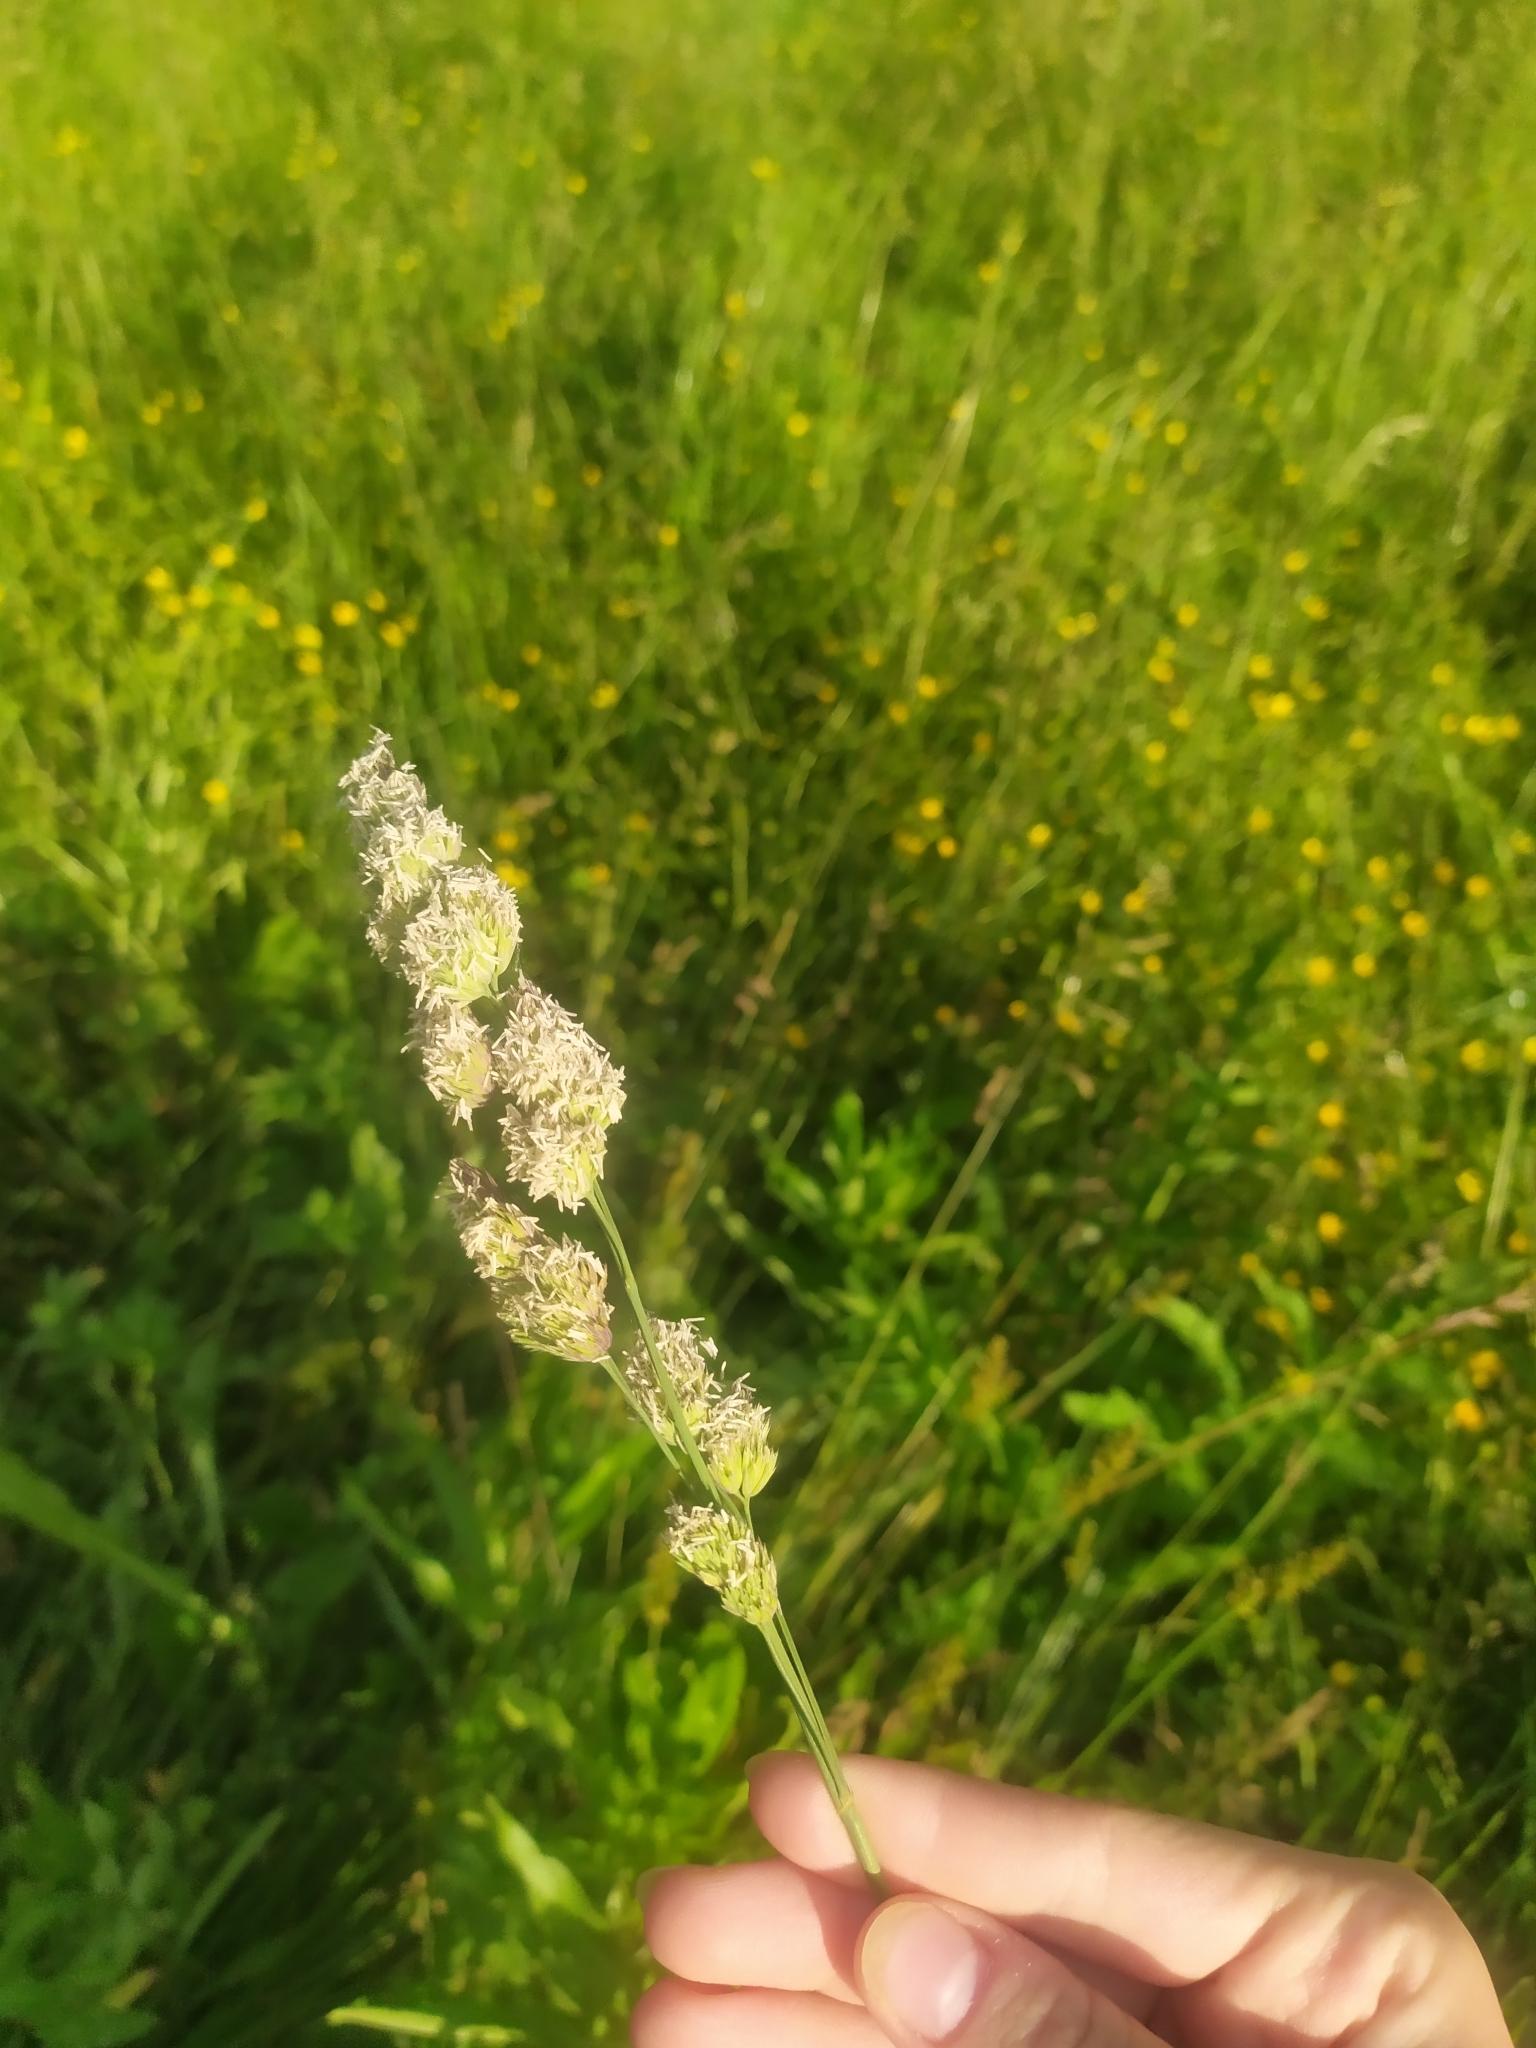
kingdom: Plantae
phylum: Tracheophyta
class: Liliopsida
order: Poales
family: Poaceae
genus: Dactylis
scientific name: Dactylis glomerata
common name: Orchardgrass
